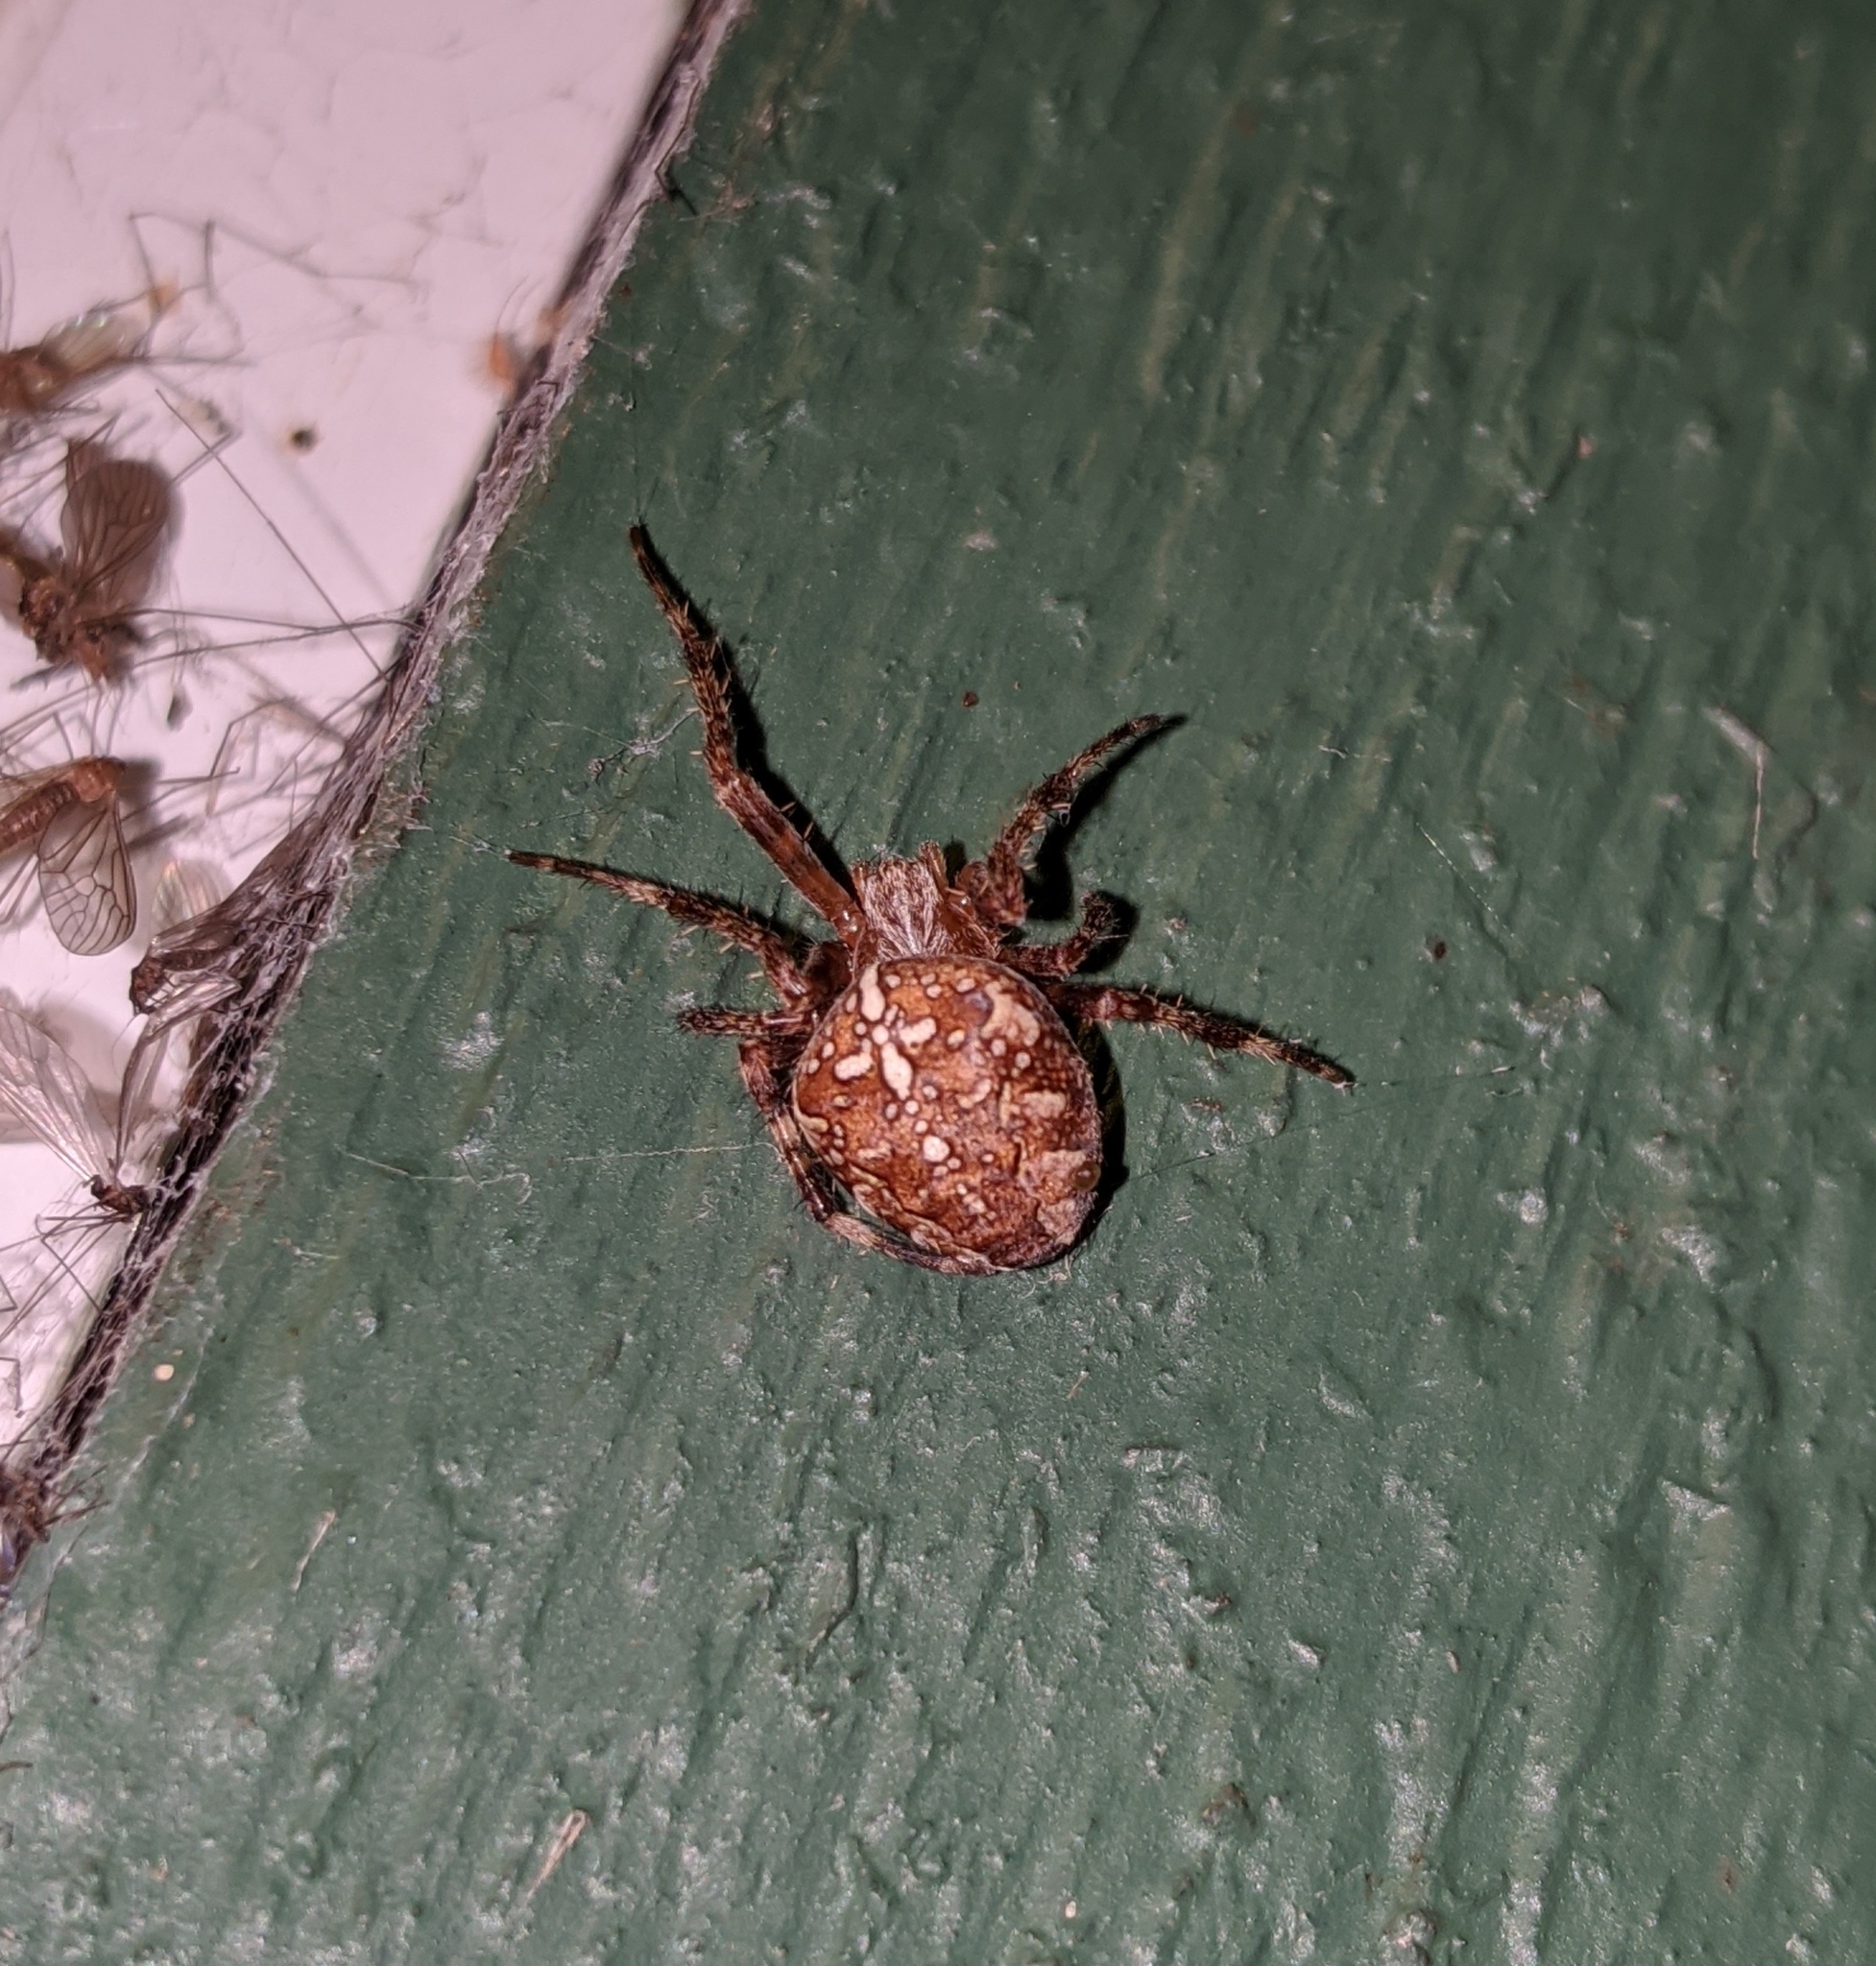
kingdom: Animalia
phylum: Arthropoda
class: Arachnida
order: Araneae
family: Araneidae
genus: Araneus
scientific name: Araneus diadematus
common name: Cross orbweaver
